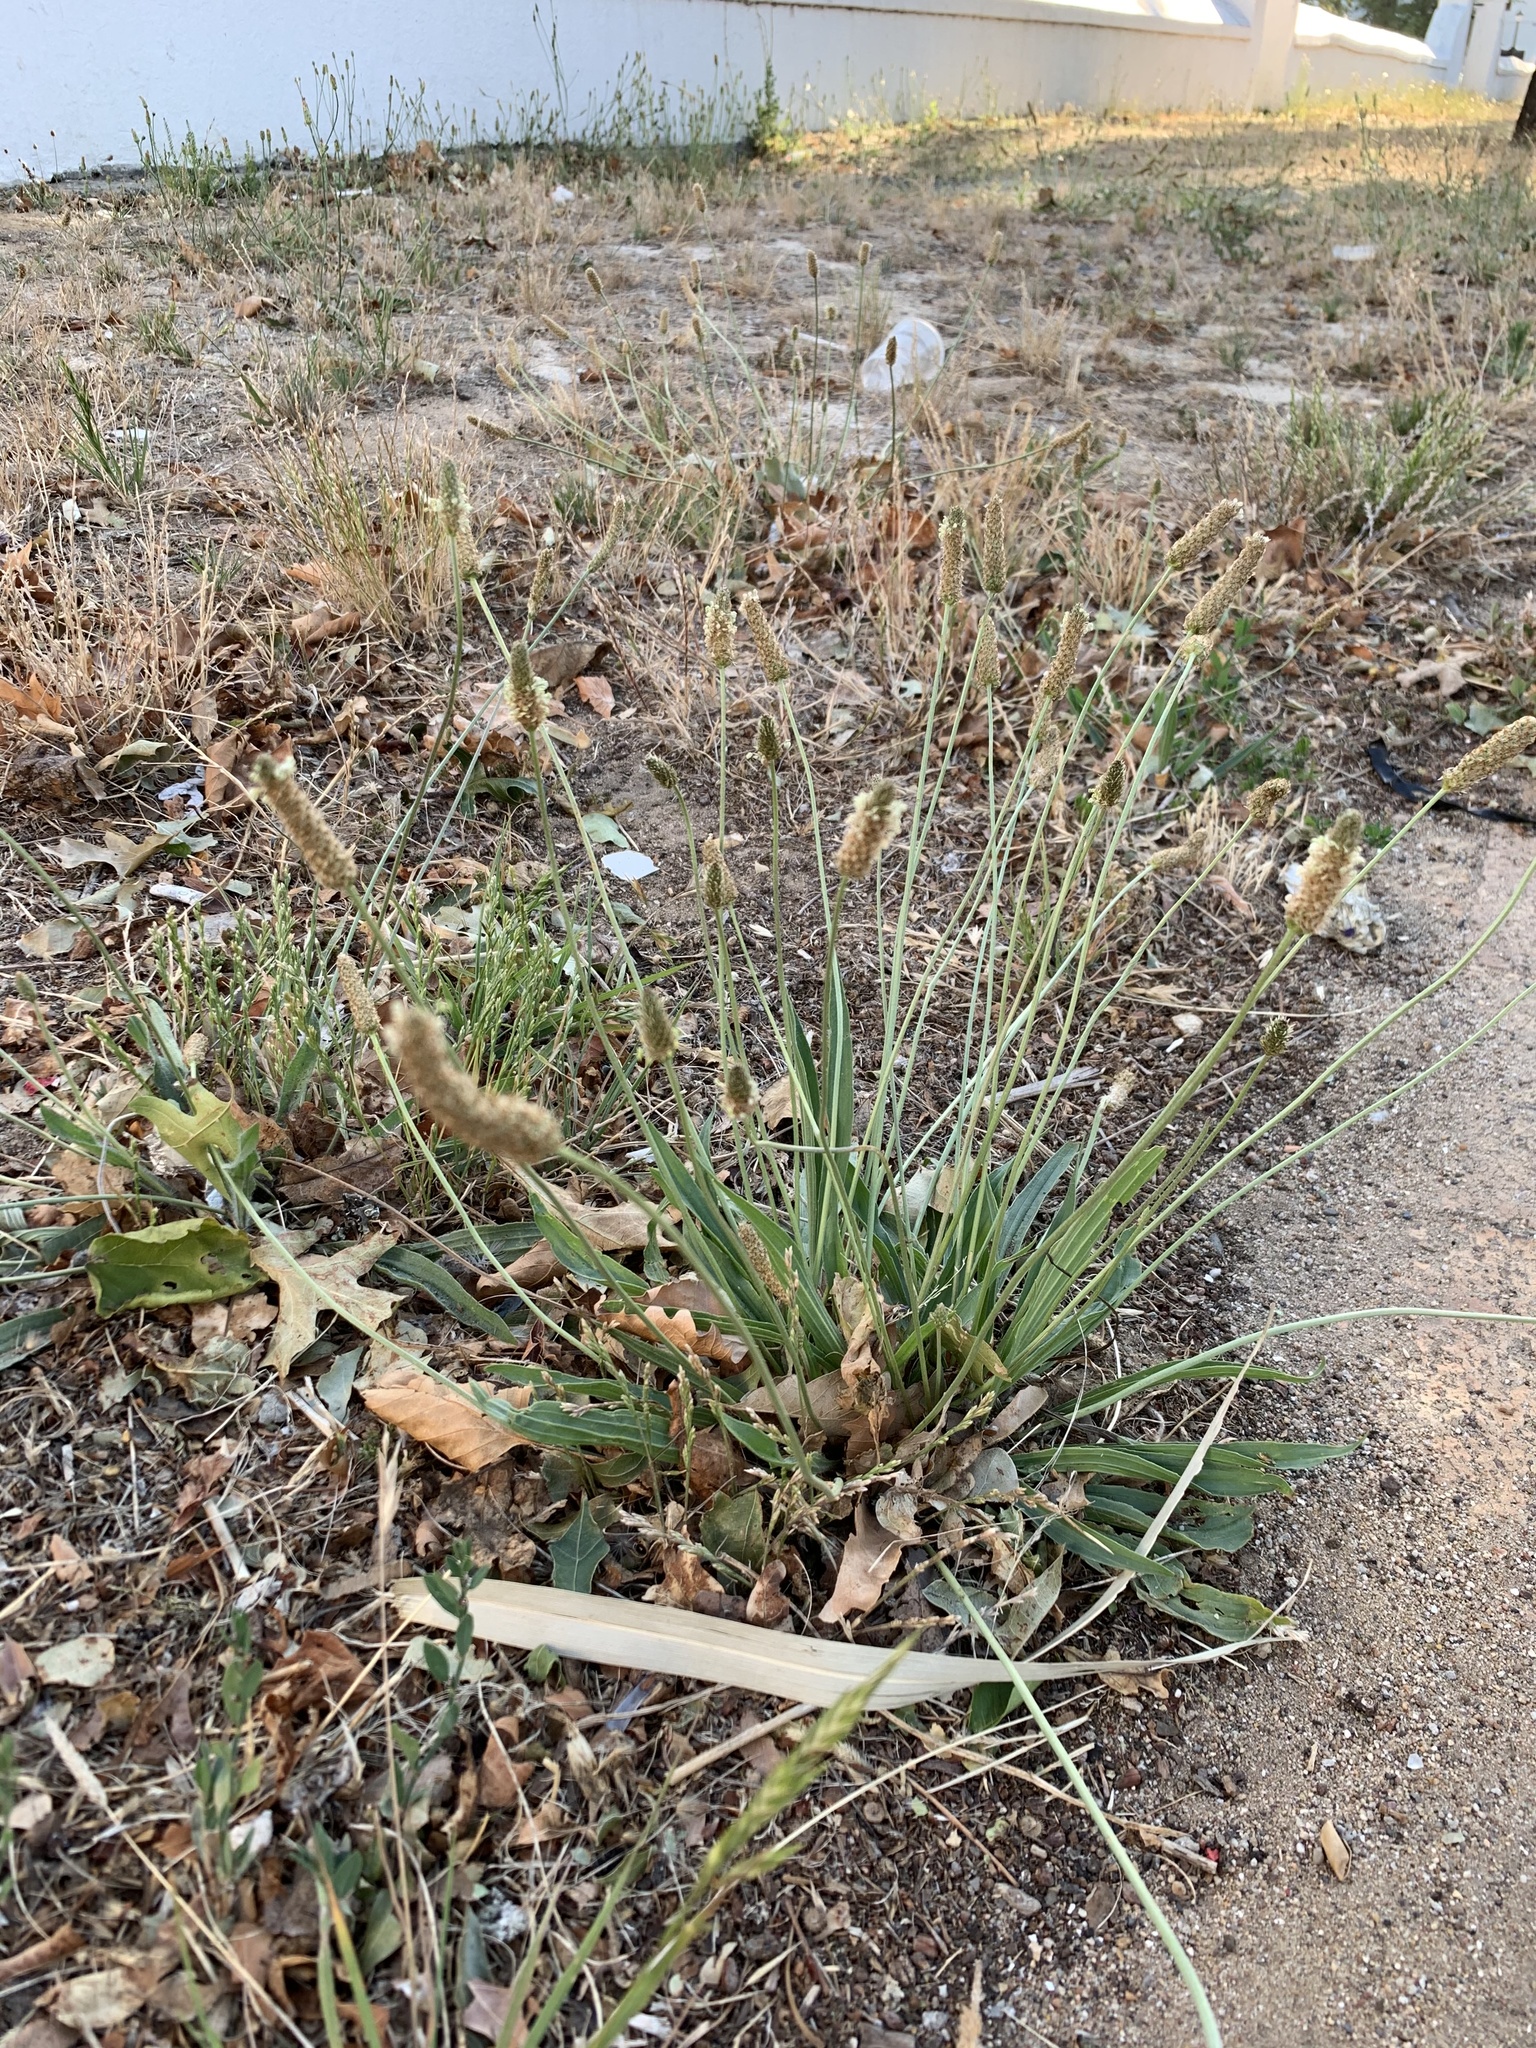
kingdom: Plantae
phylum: Tracheophyta
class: Magnoliopsida
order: Lamiales
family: Plantaginaceae
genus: Plantago
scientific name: Plantago lanceolata
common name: Ribwort plantain
